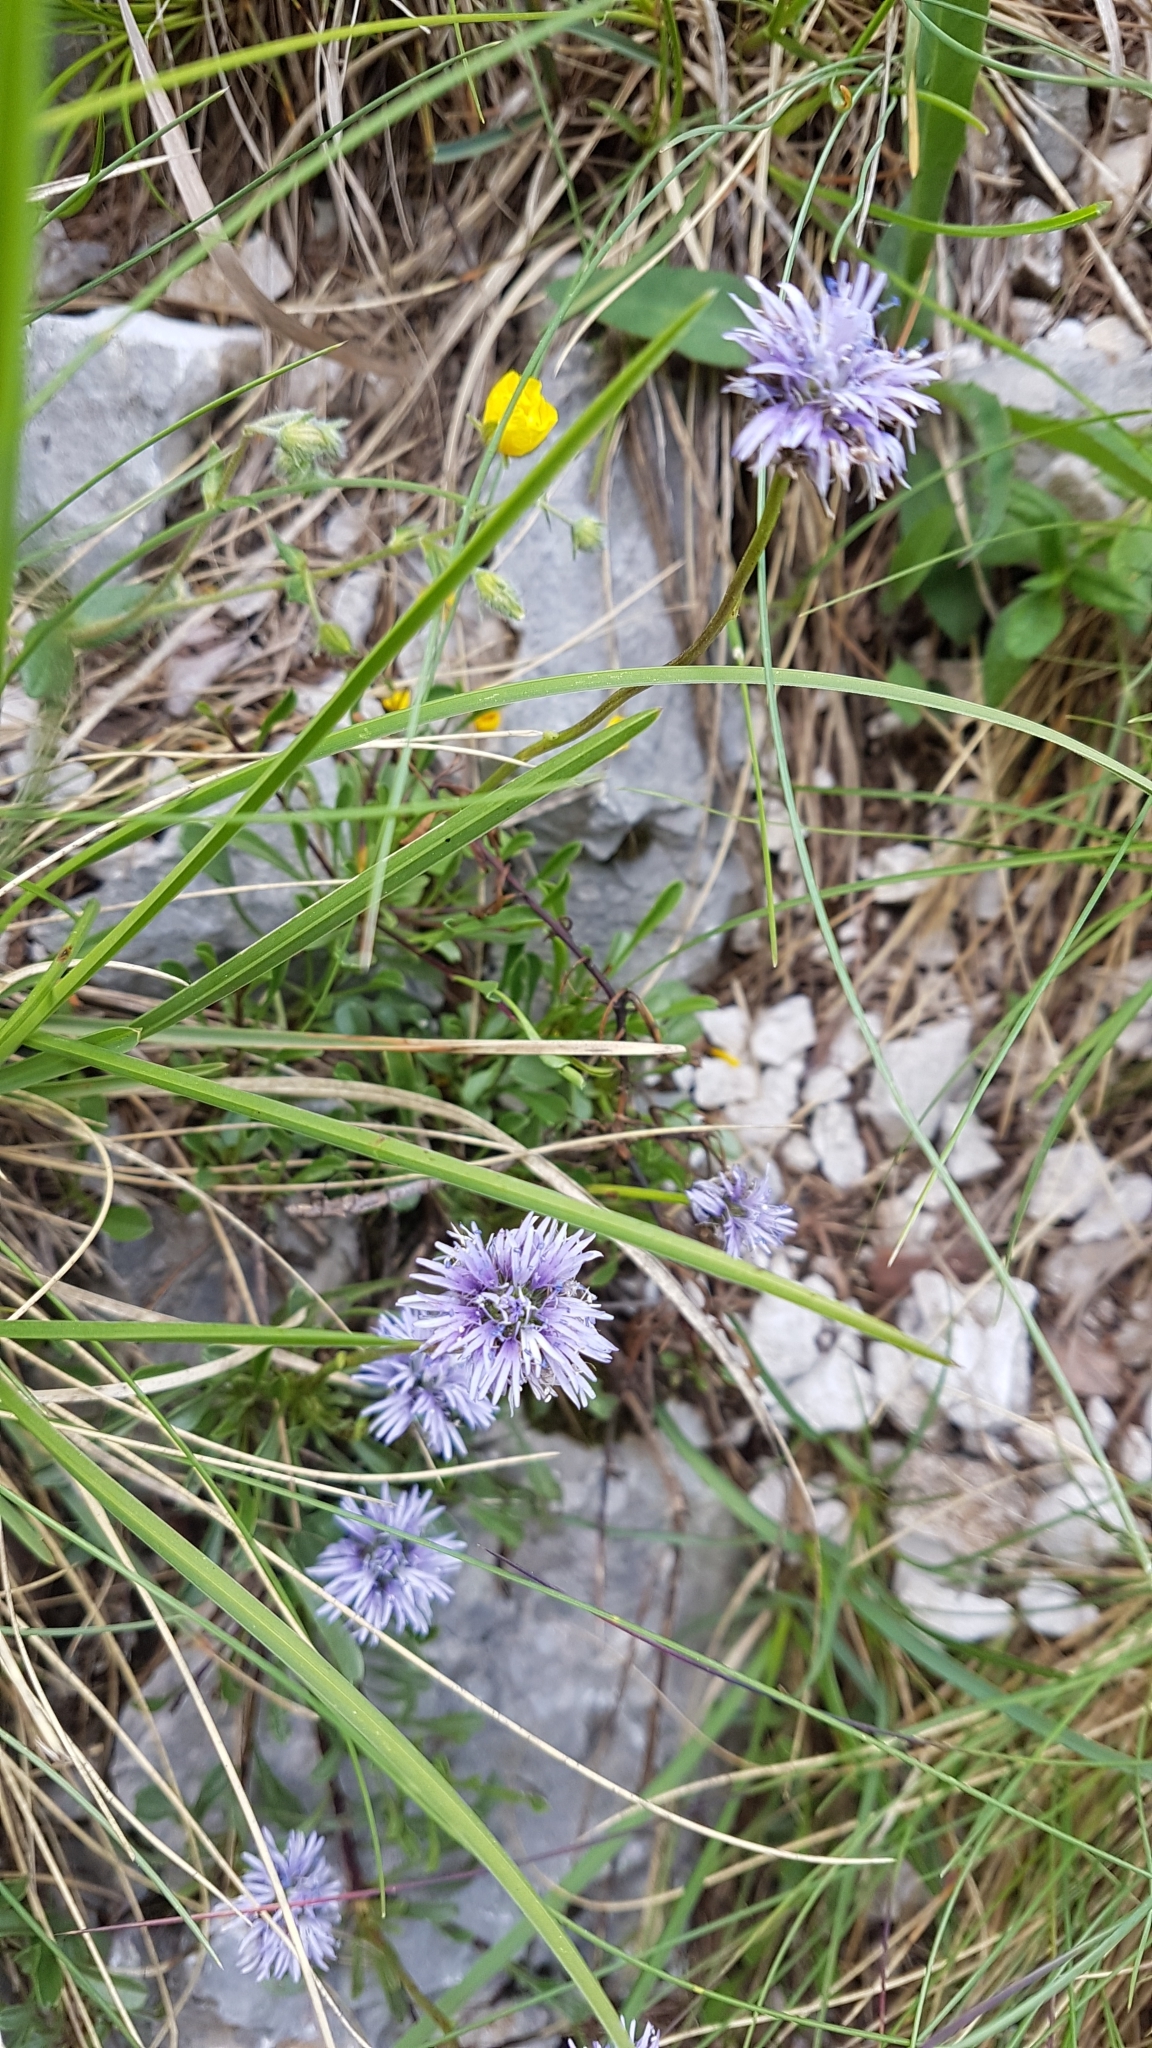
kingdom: Plantae
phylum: Tracheophyta
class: Magnoliopsida
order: Lamiales
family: Plantaginaceae
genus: Globularia
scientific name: Globularia cordifolia
